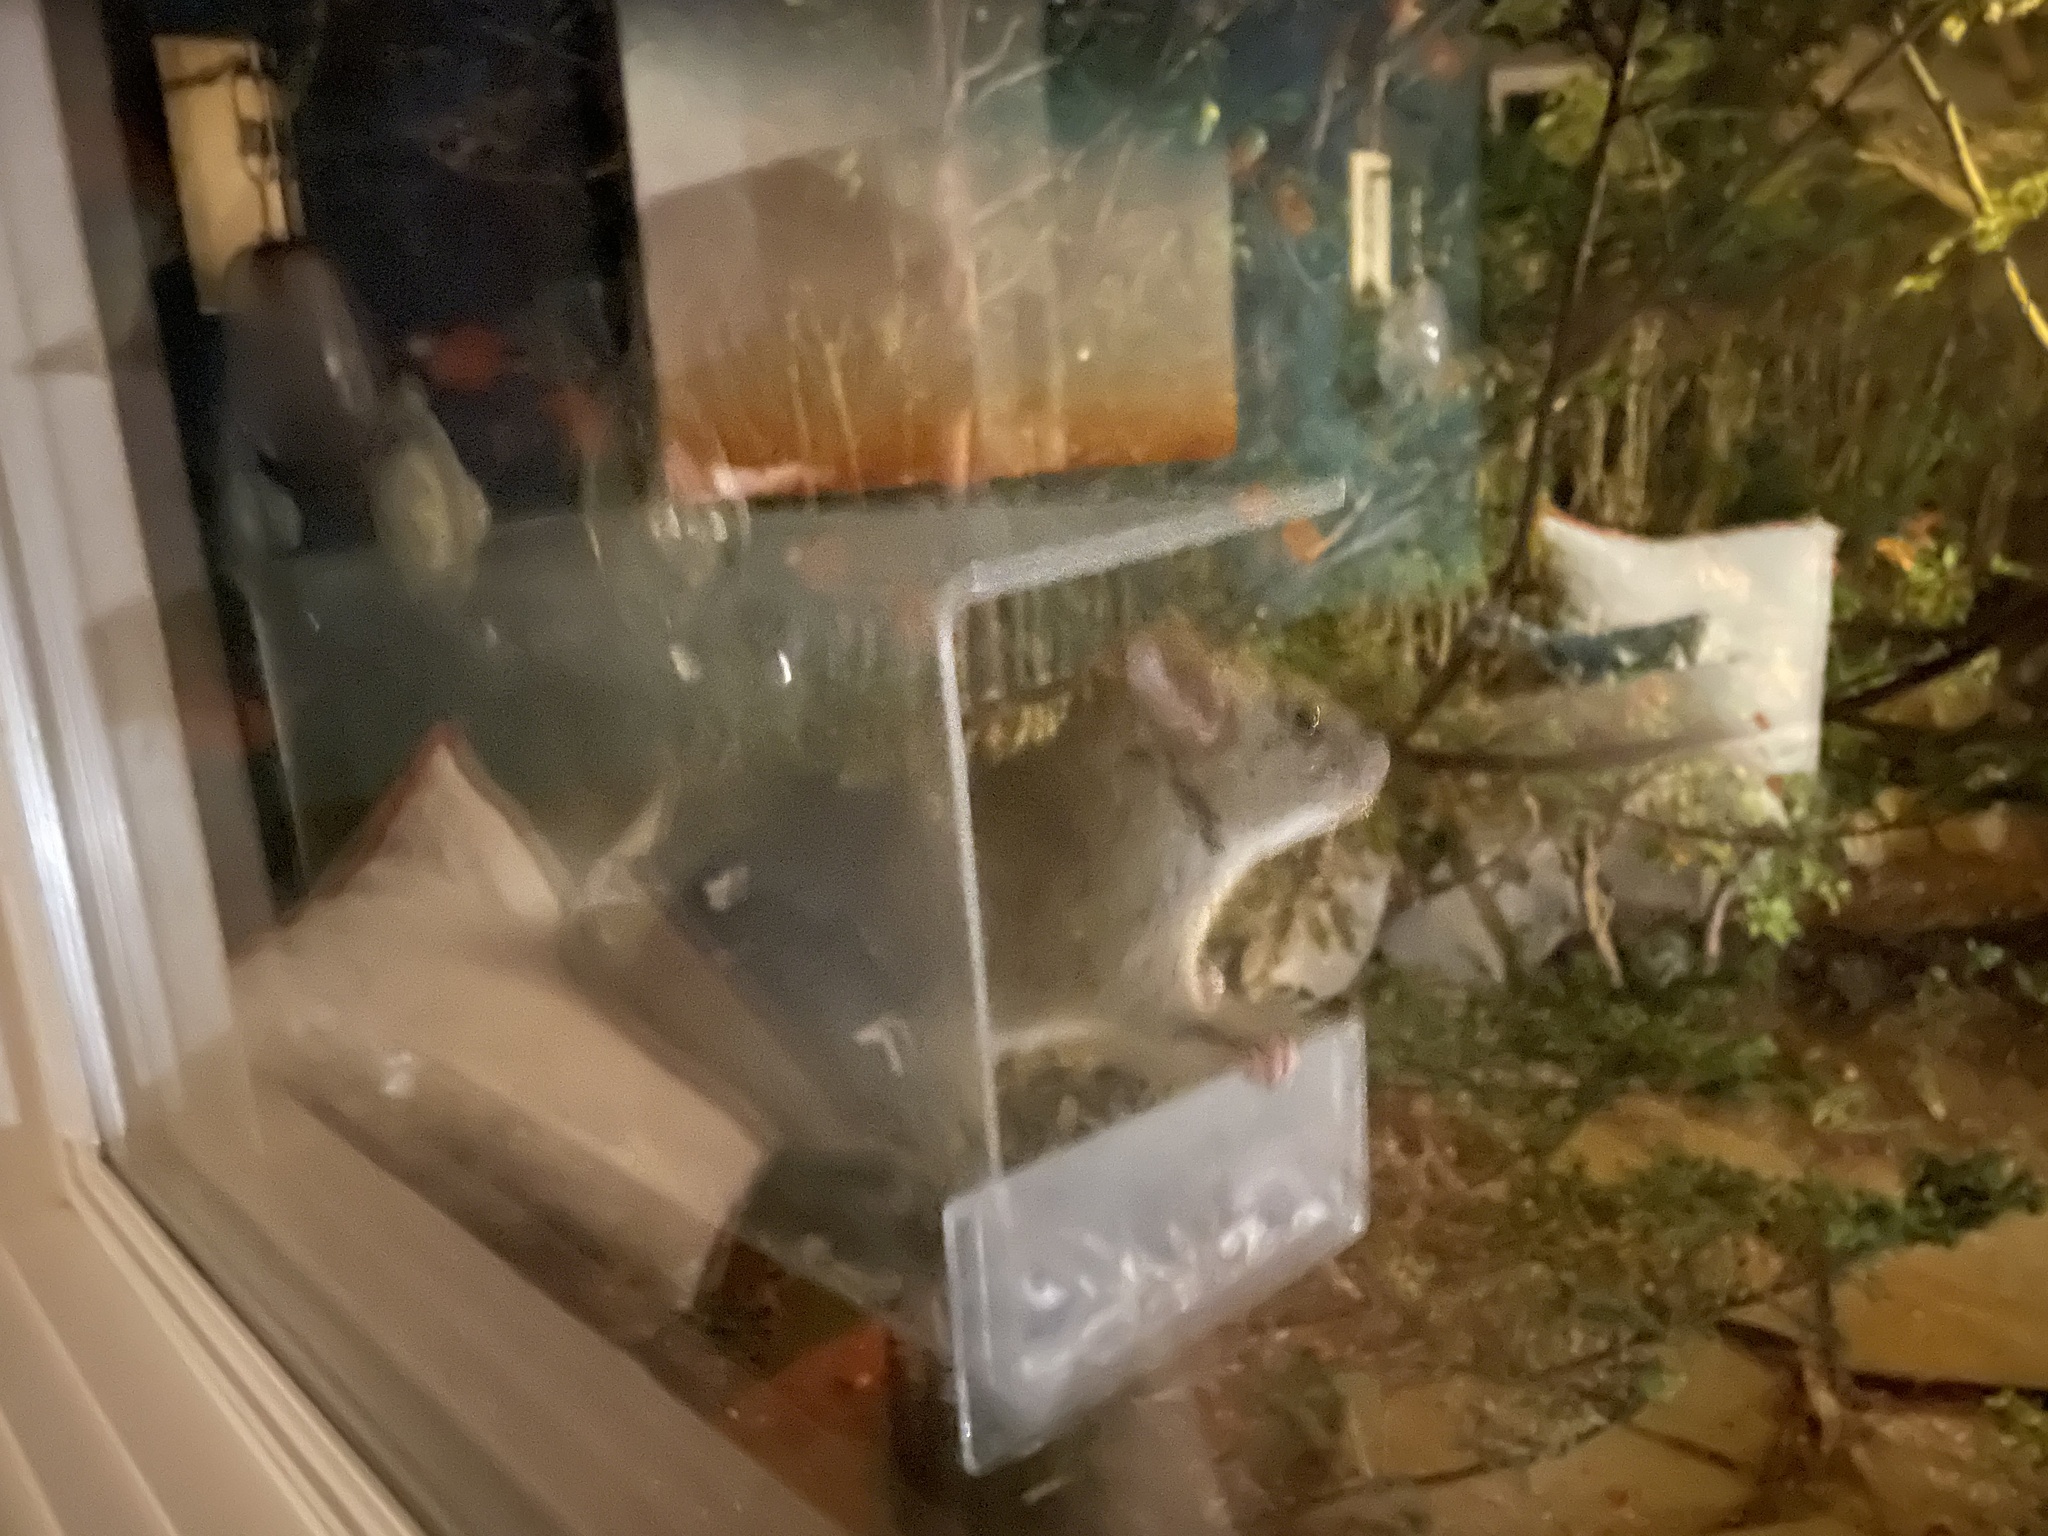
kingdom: Animalia
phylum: Chordata
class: Mammalia
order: Rodentia
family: Muridae
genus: Rattus
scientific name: Rattus rattus
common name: Black rat
